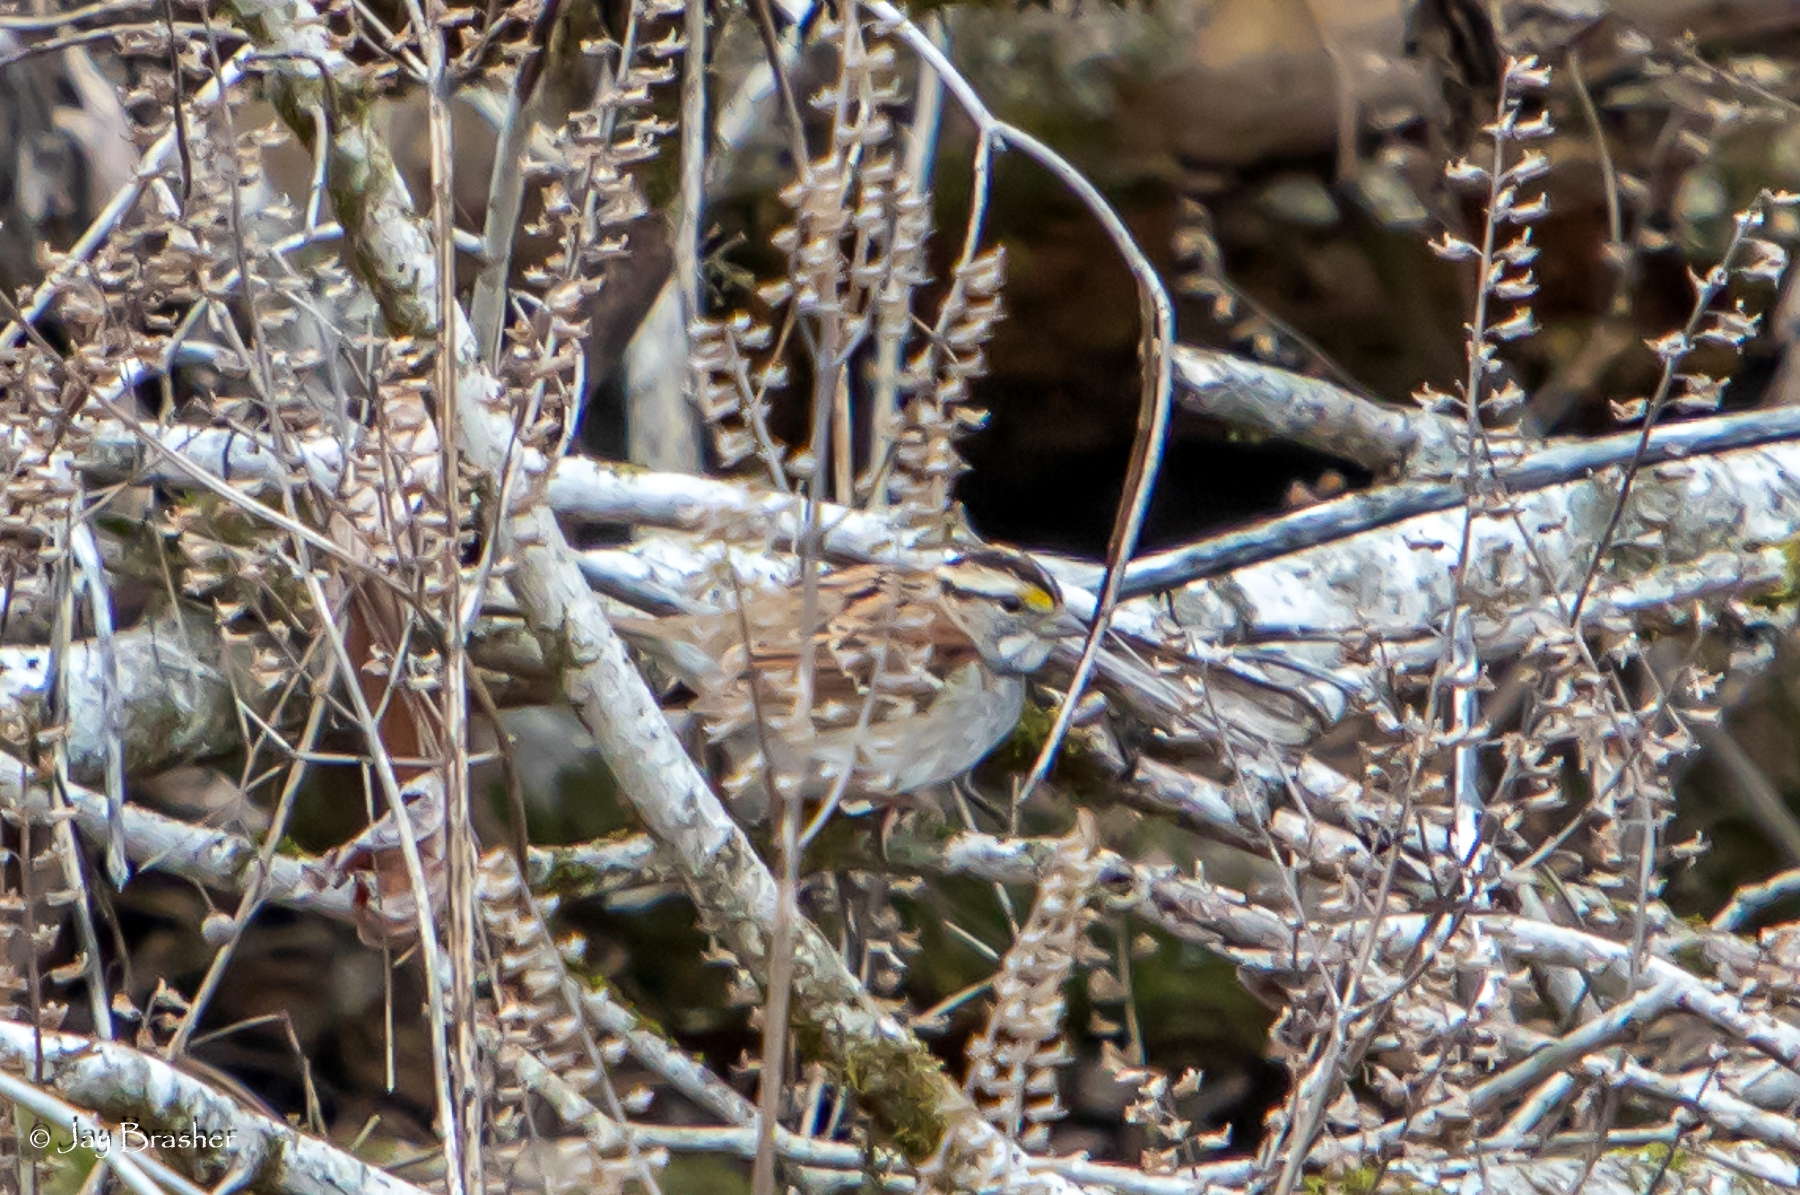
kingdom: Animalia
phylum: Chordata
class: Aves
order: Passeriformes
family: Passerellidae
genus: Zonotrichia
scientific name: Zonotrichia albicollis
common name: White-throated sparrow
